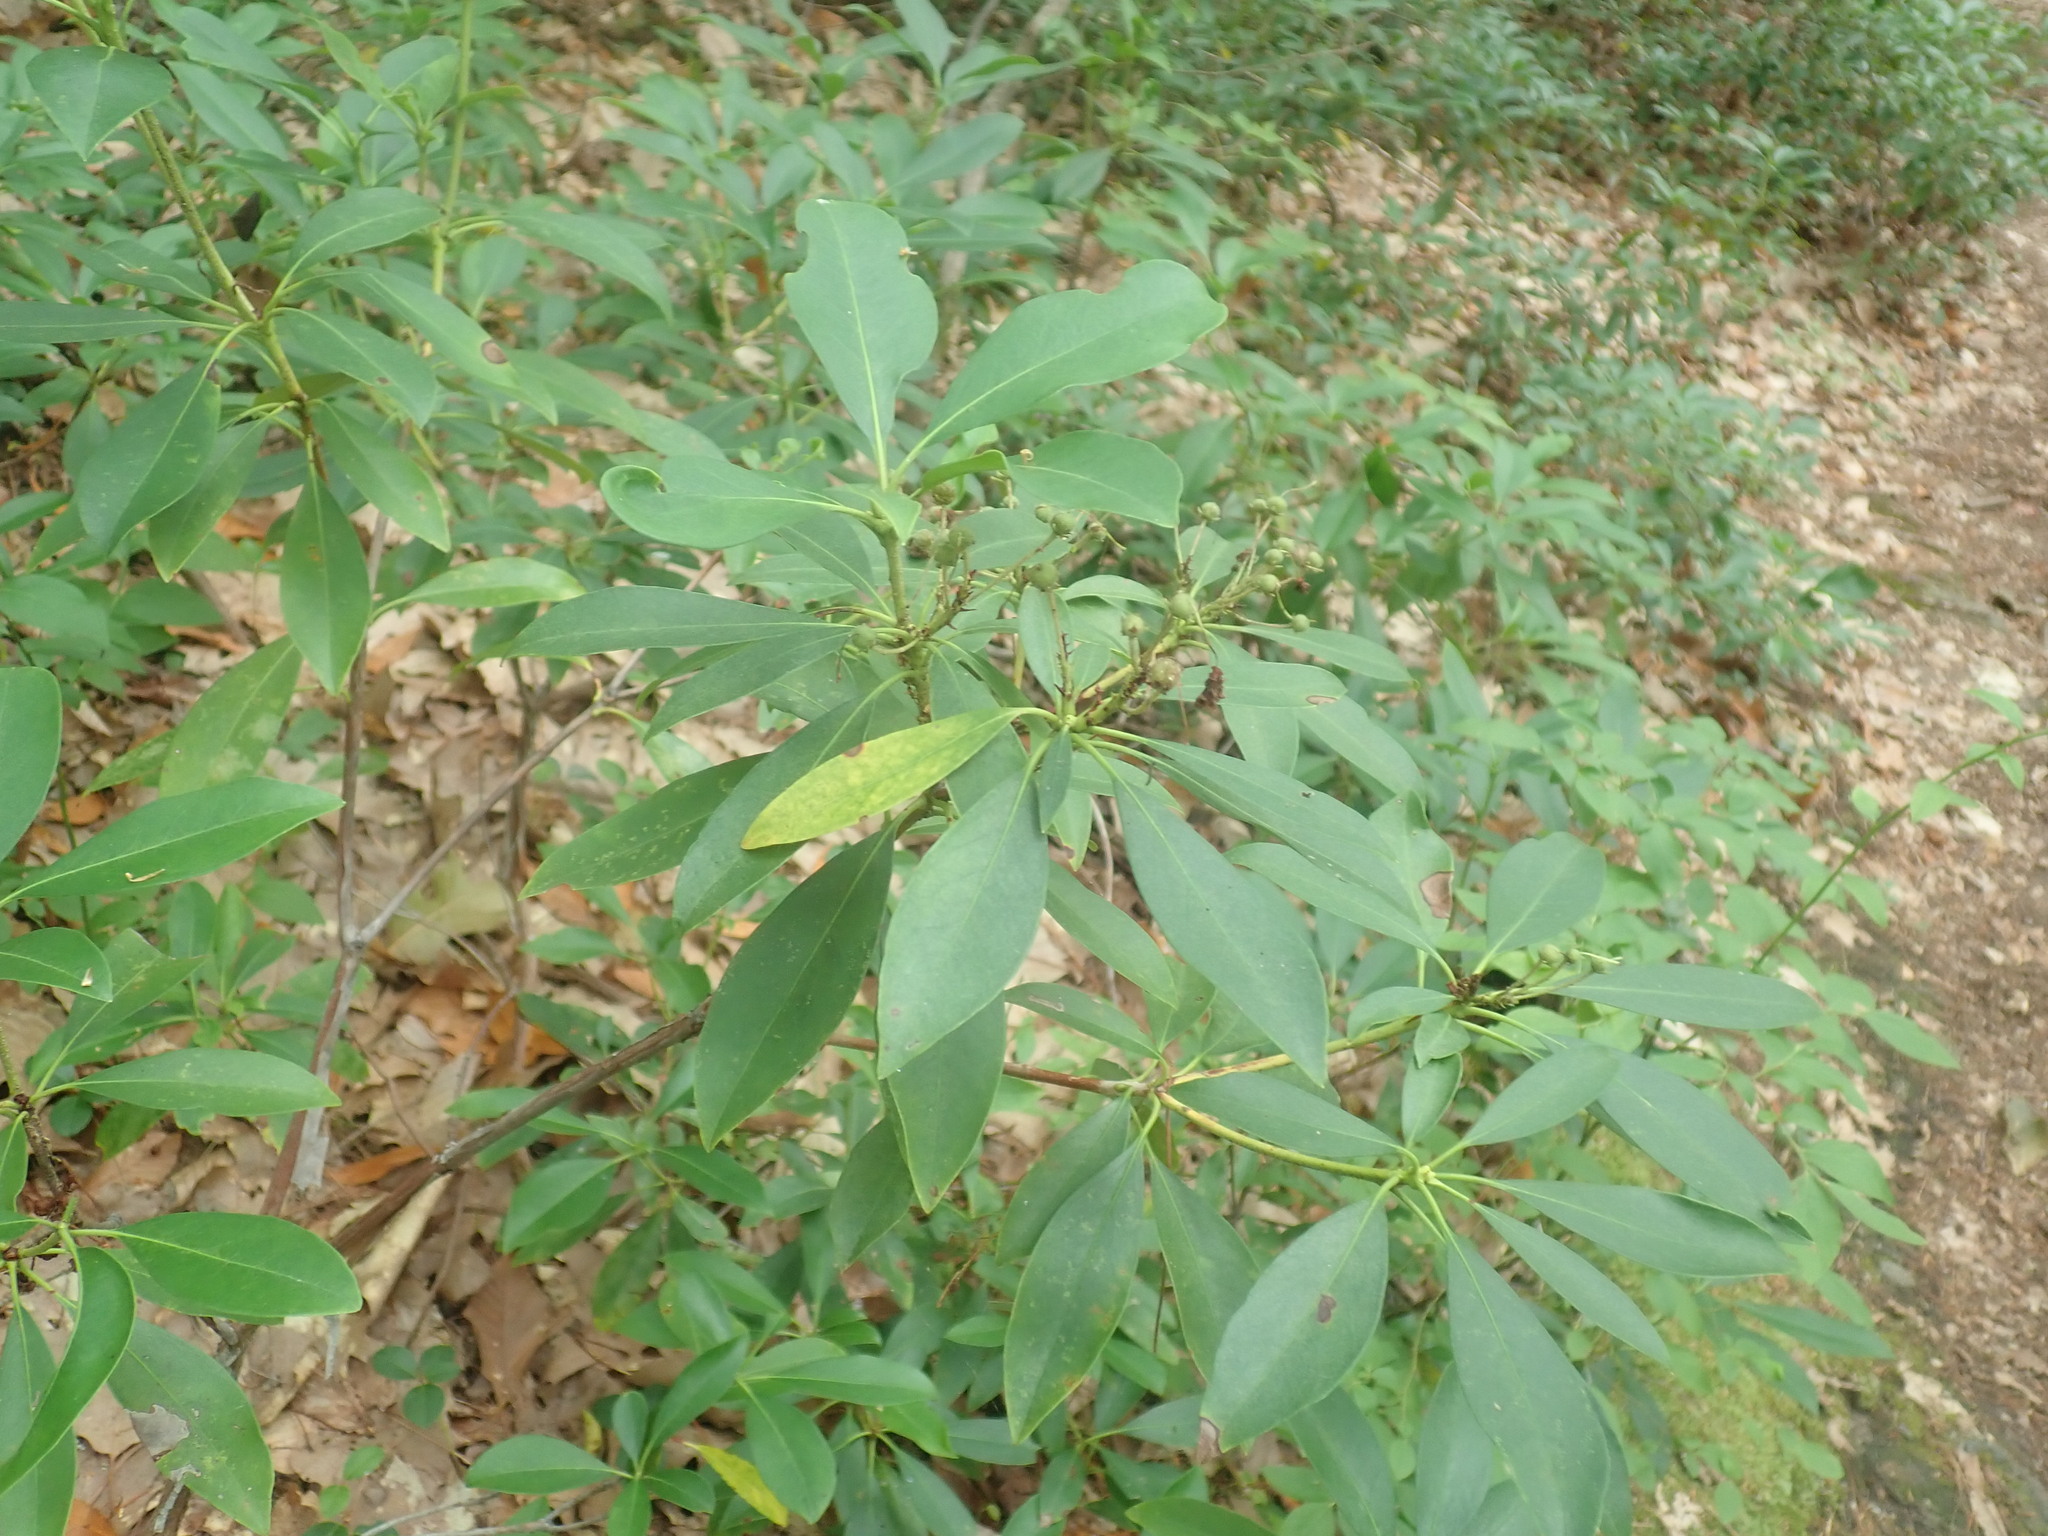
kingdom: Plantae
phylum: Tracheophyta
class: Magnoliopsida
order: Ericales
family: Ericaceae
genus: Kalmia
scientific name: Kalmia latifolia
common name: Mountain-laurel
